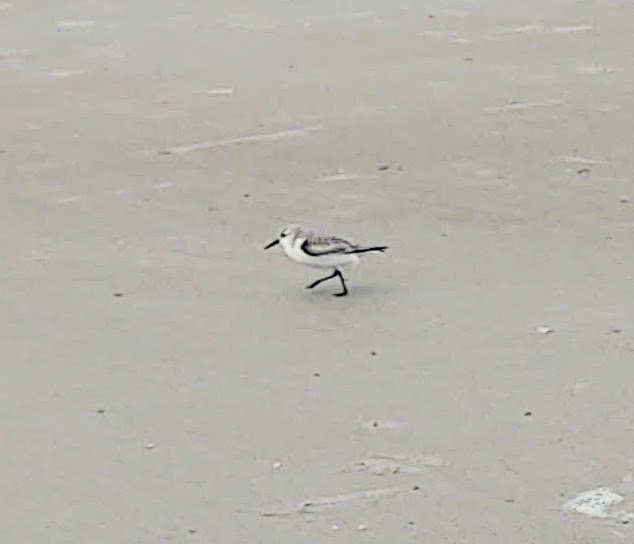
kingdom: Animalia
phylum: Chordata
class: Aves
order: Charadriiformes
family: Scolopacidae
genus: Calidris
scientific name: Calidris alba
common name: Sanderling
